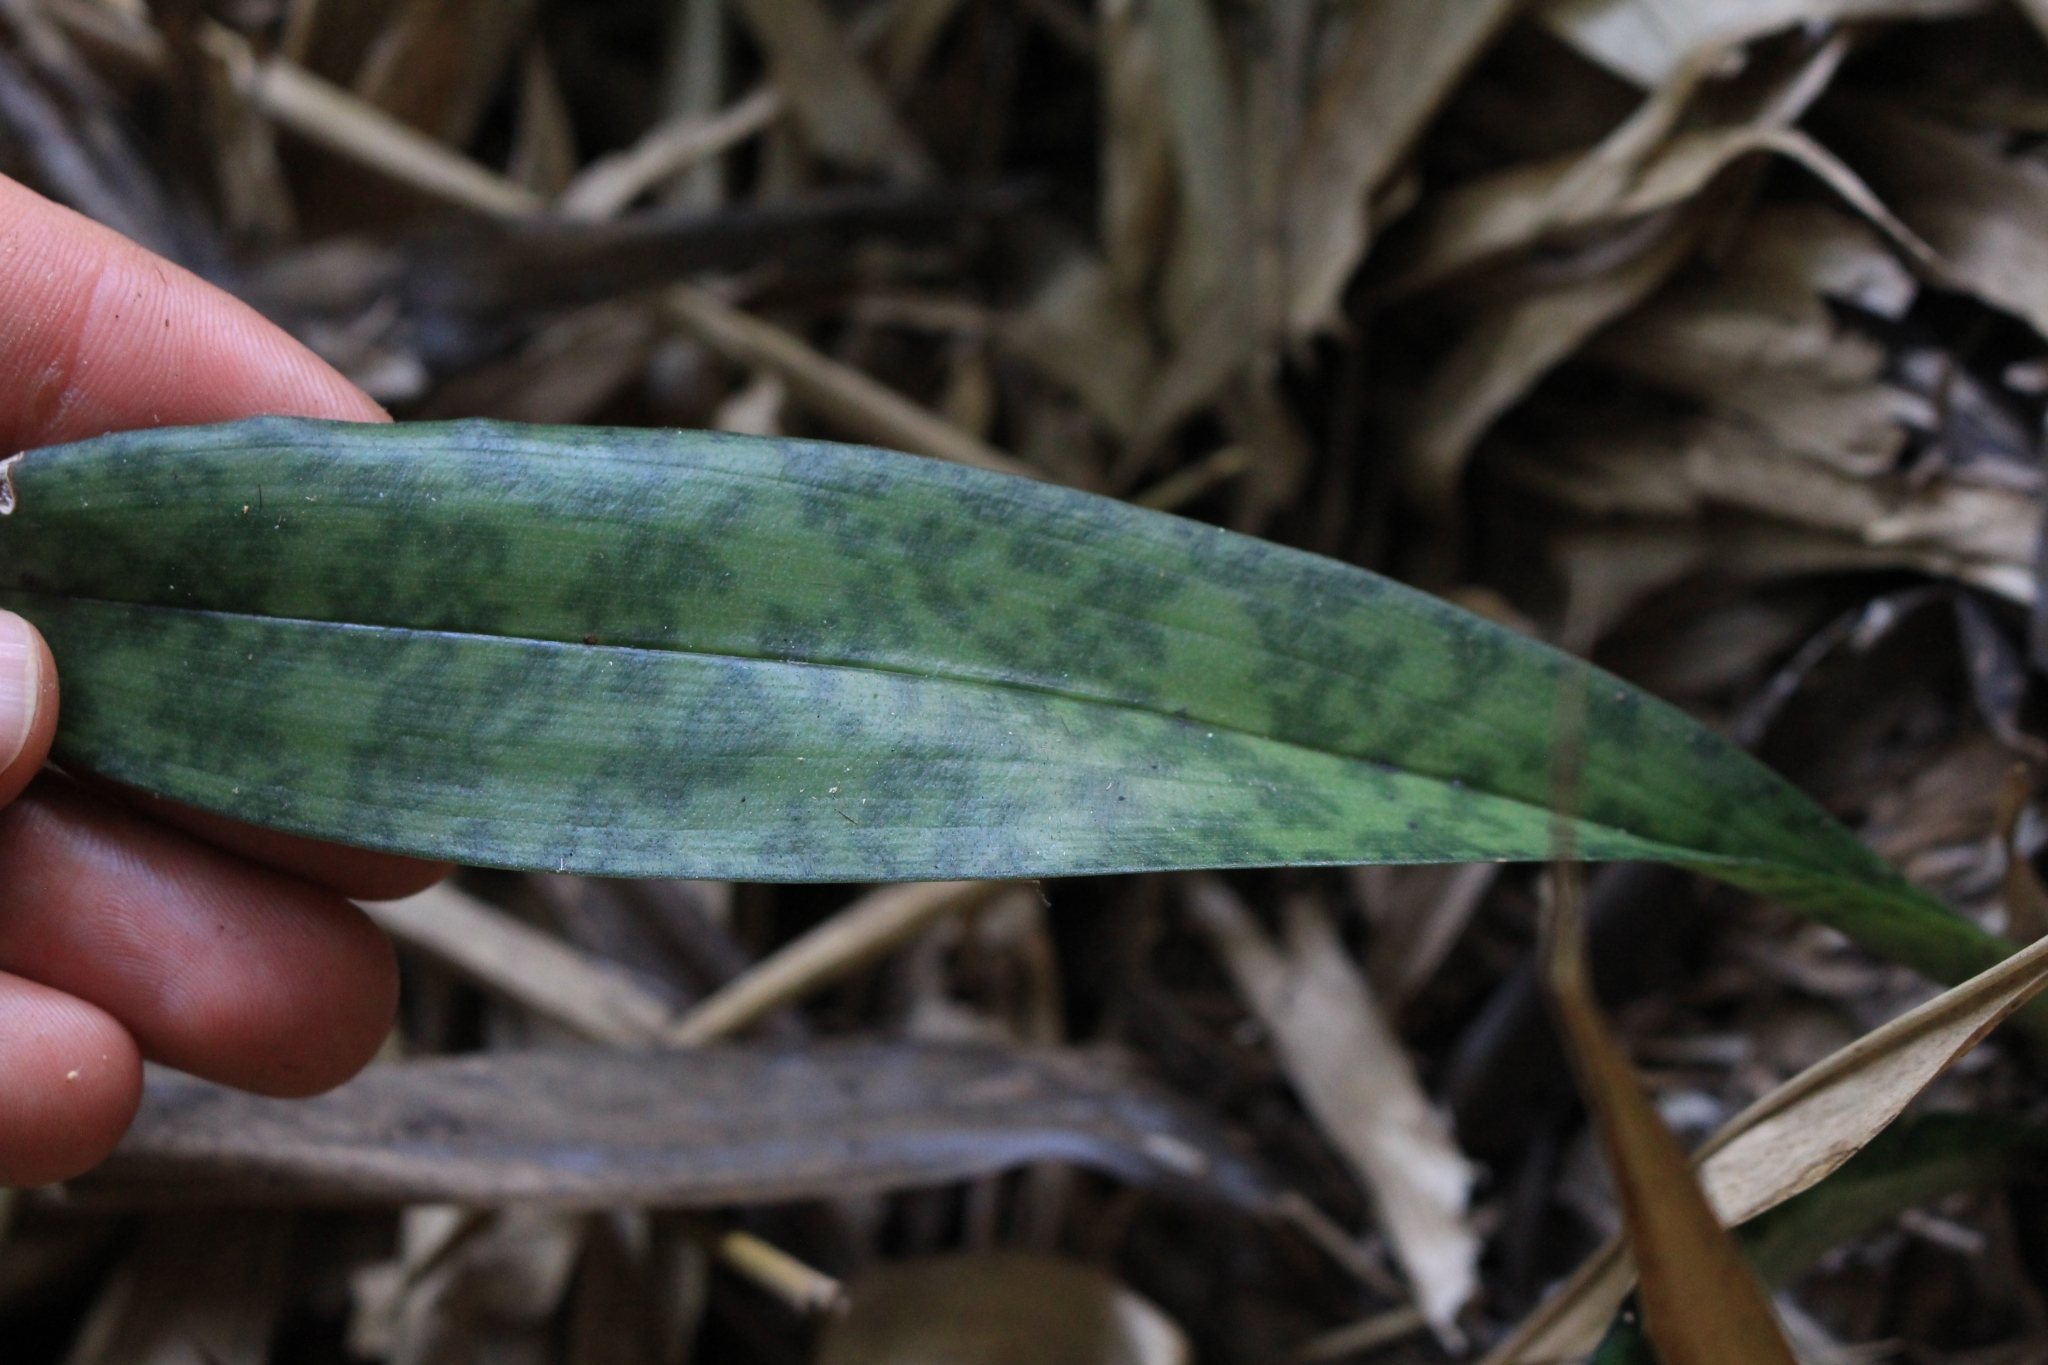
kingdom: Plantae
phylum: Tracheophyta
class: Liliopsida
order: Asparagales
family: Orchidaceae
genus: Eulophia
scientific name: Eulophia maculata
